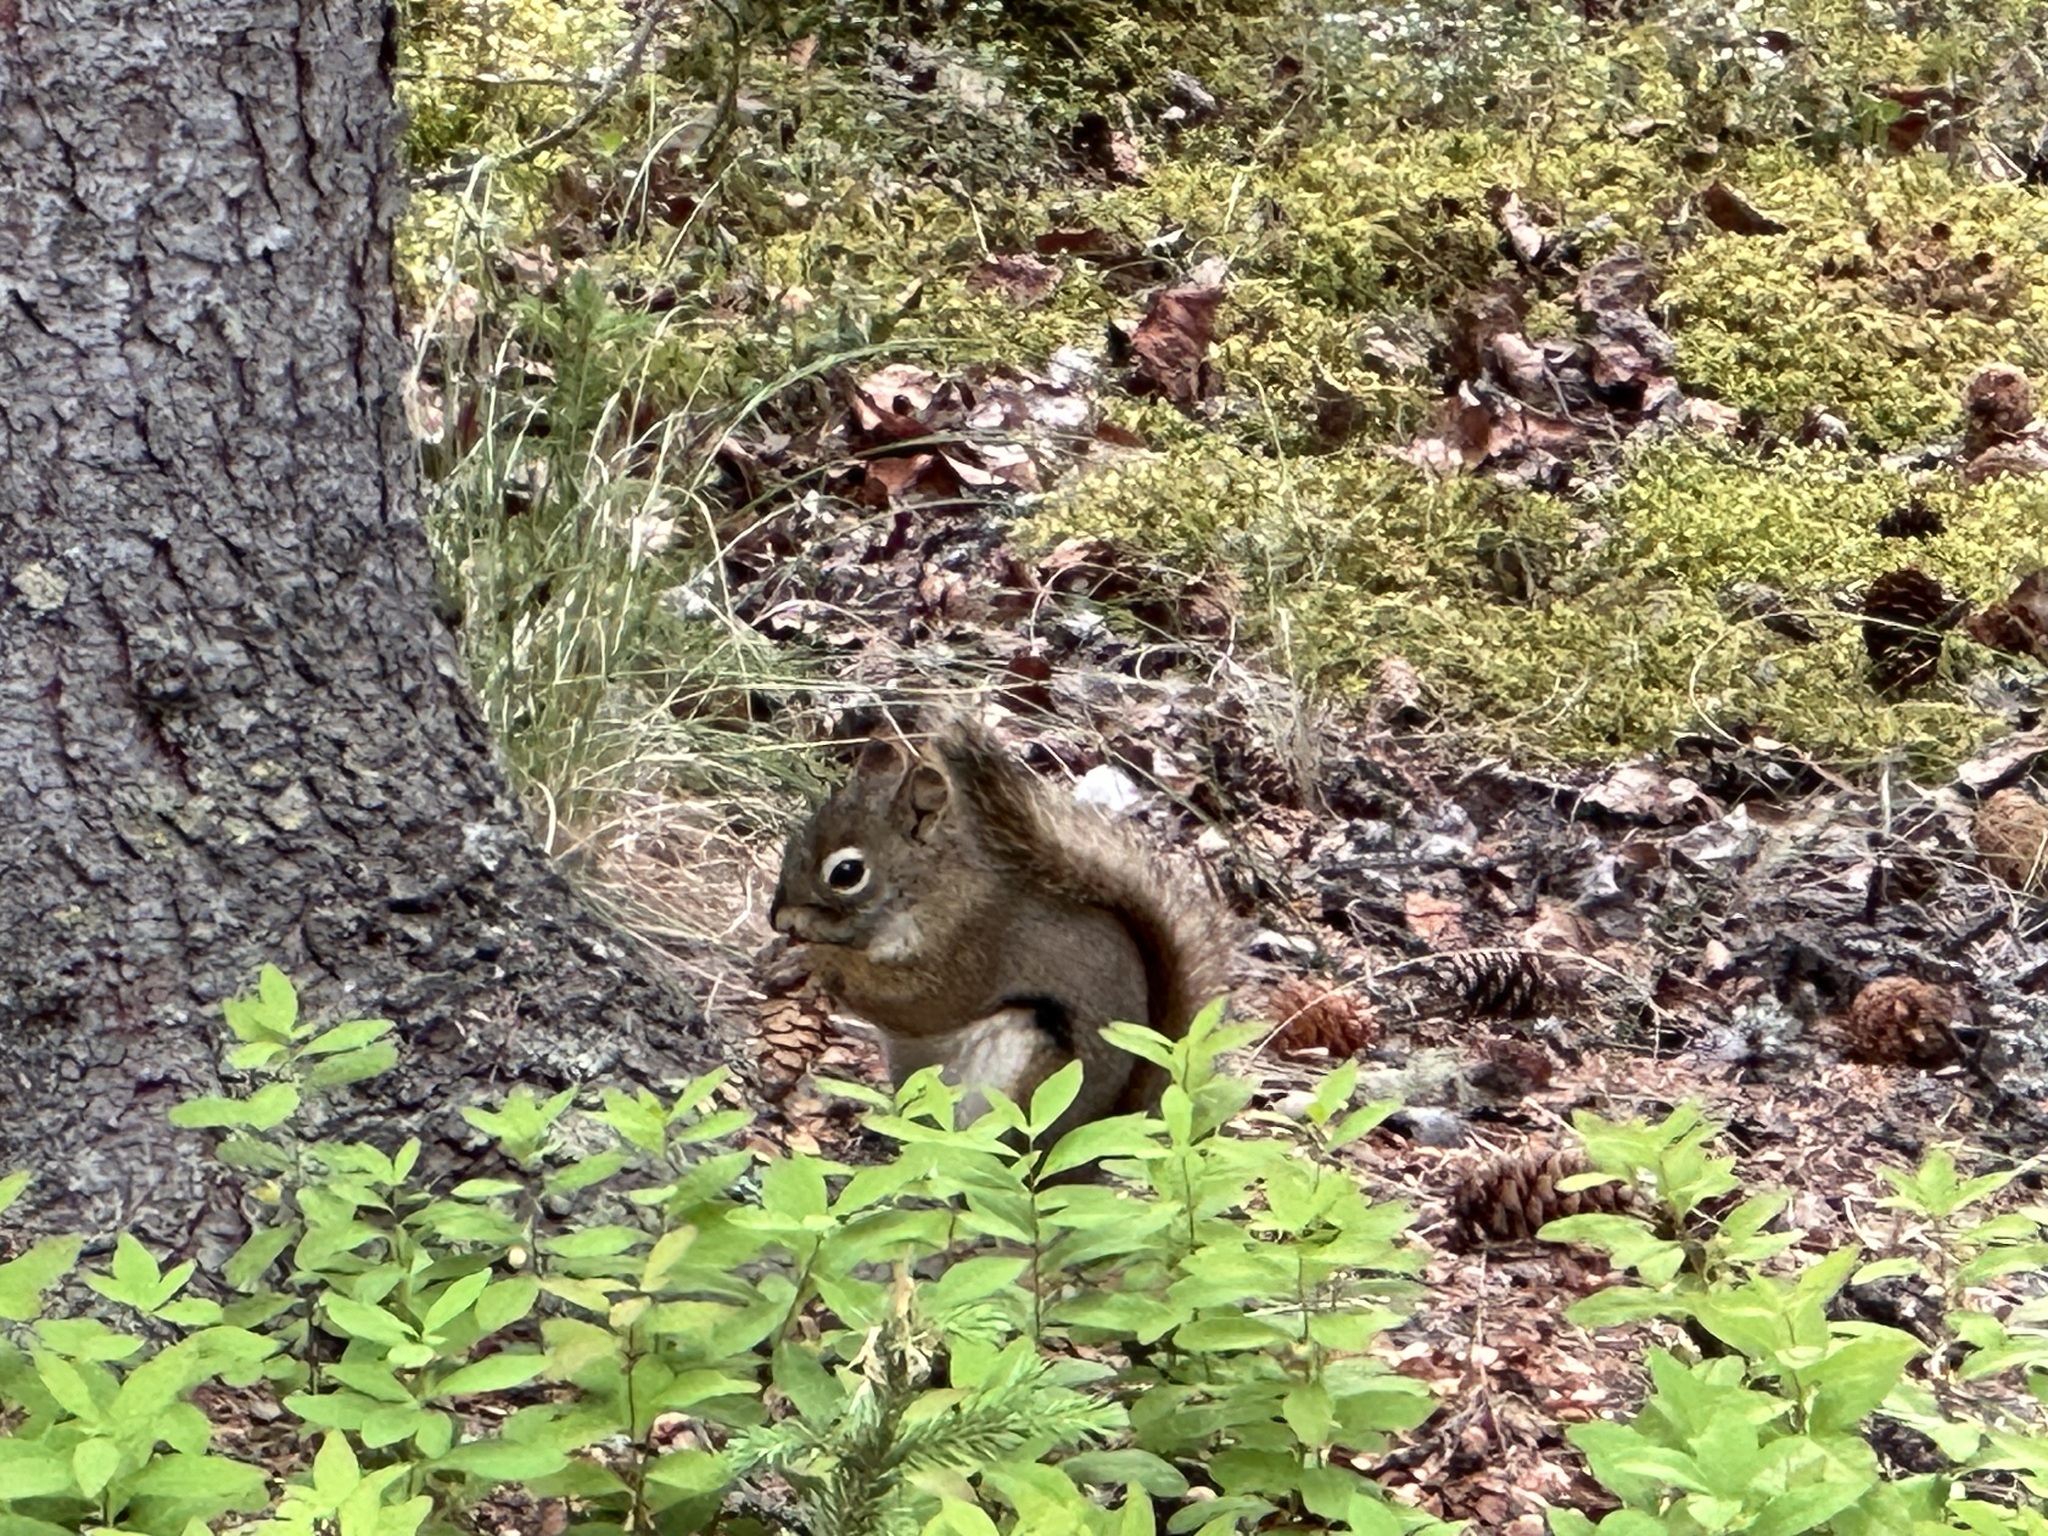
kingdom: Animalia
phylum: Chordata
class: Mammalia
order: Rodentia
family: Sciuridae
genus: Tamiasciurus
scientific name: Tamiasciurus hudsonicus
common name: Red squirrel
